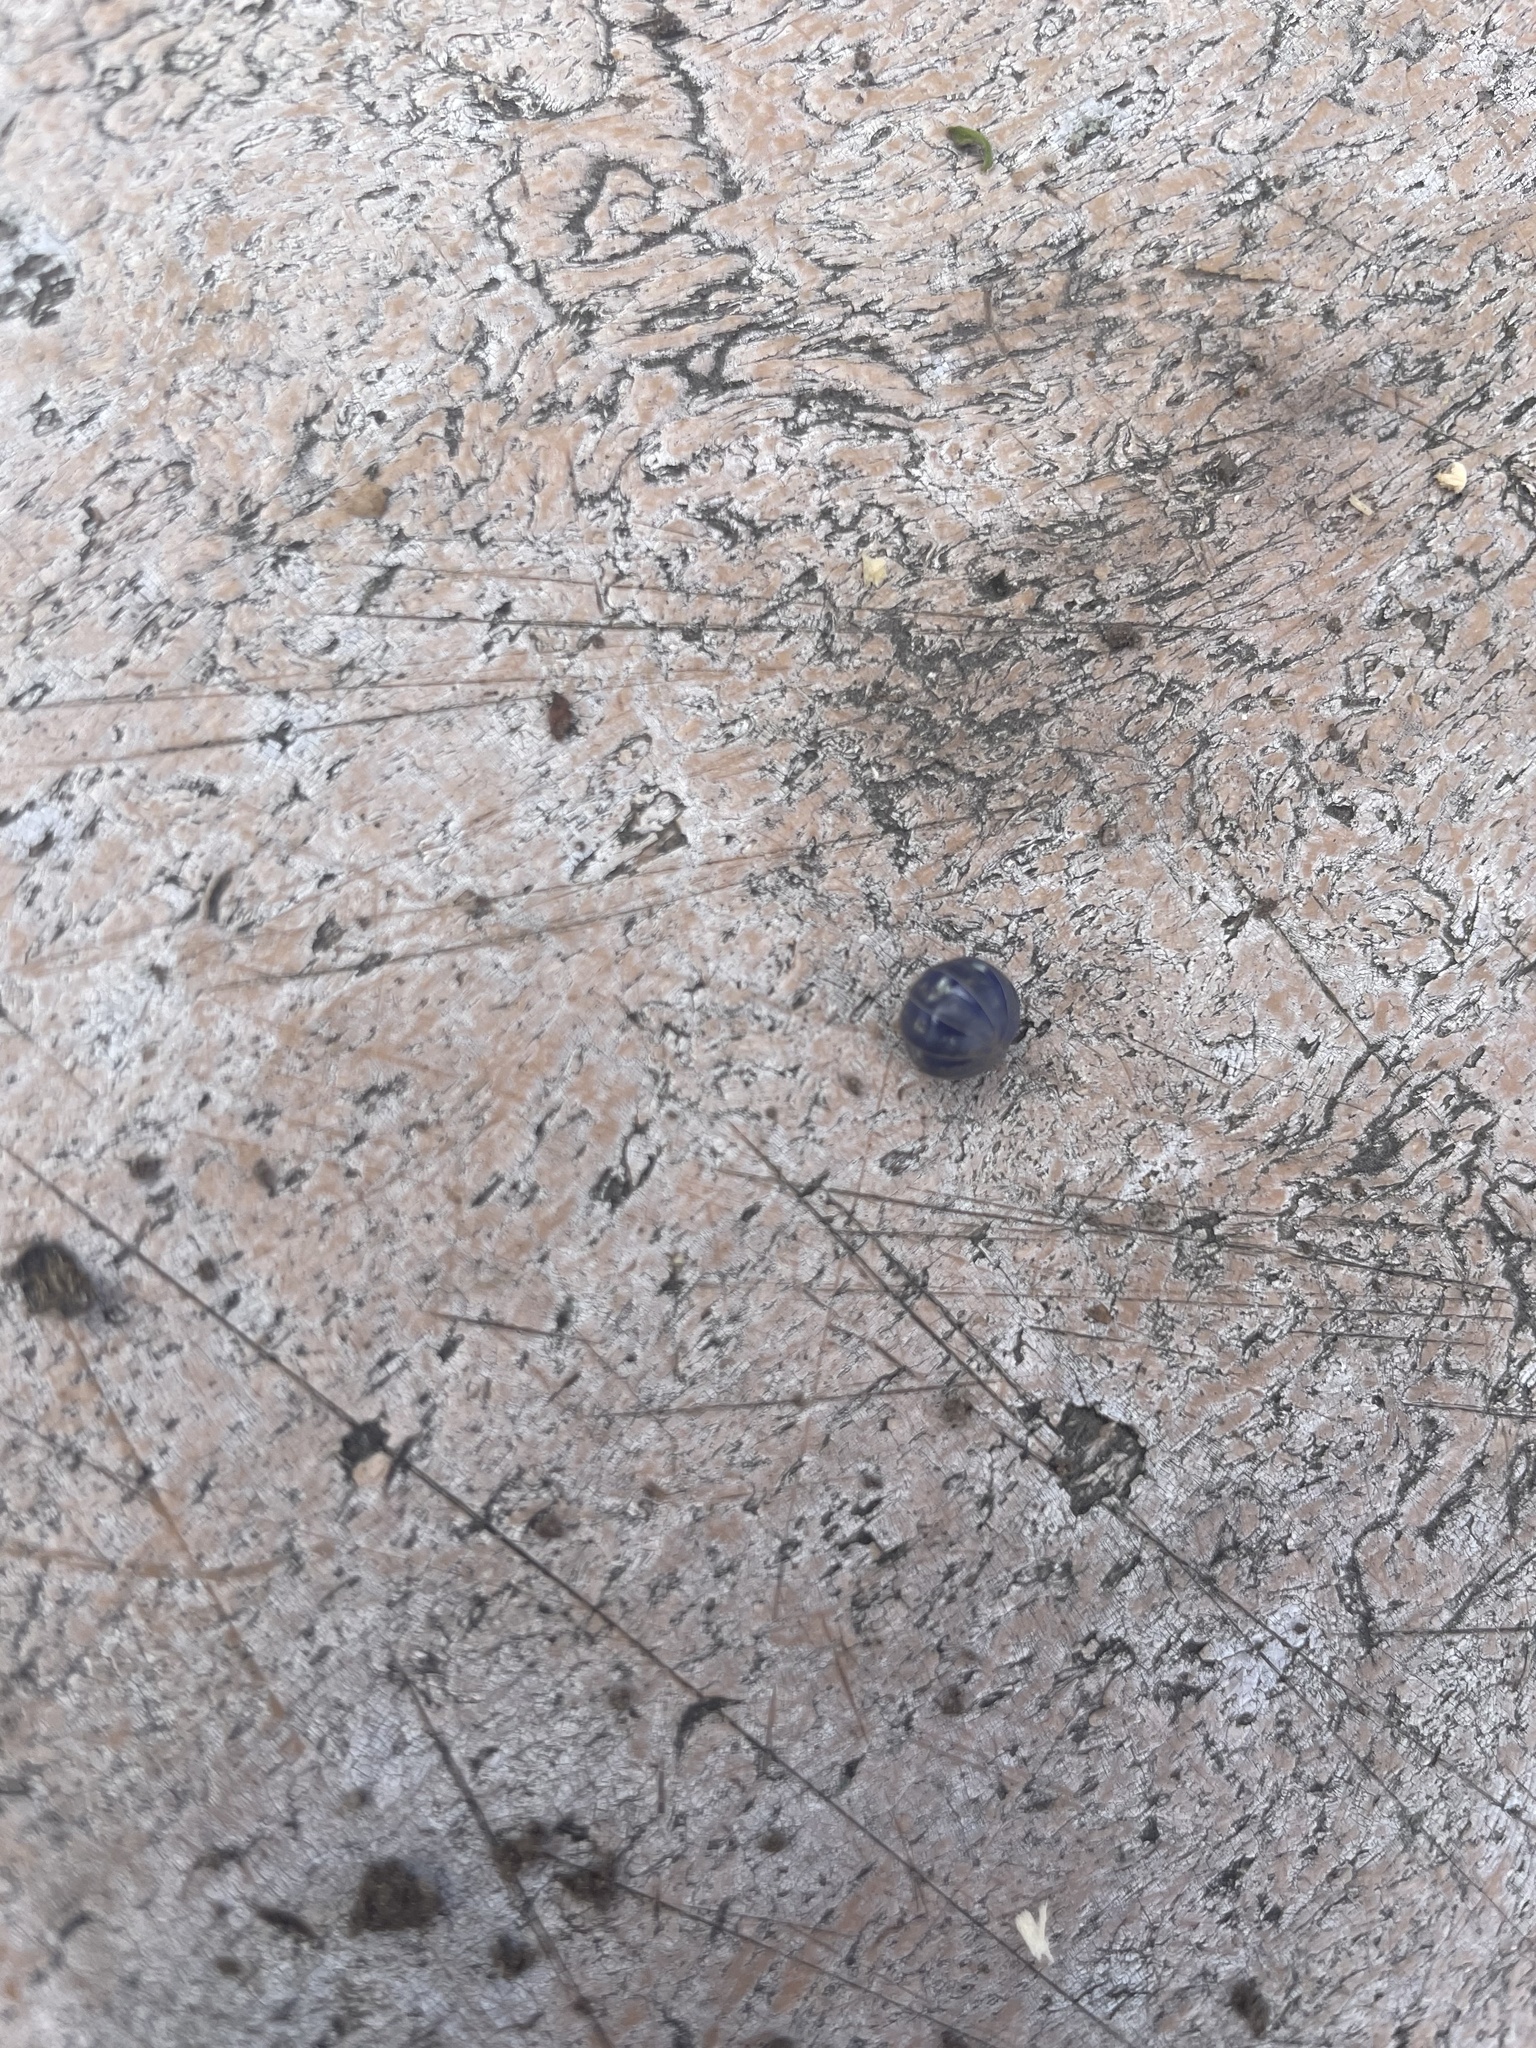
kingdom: Viruses
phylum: Nucleocytoviricota
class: Megaviricetes
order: Pimascovirales
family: Iridoviridae
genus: Iridovirus
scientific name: Iridovirus Invertebrate iridescent virus 31
